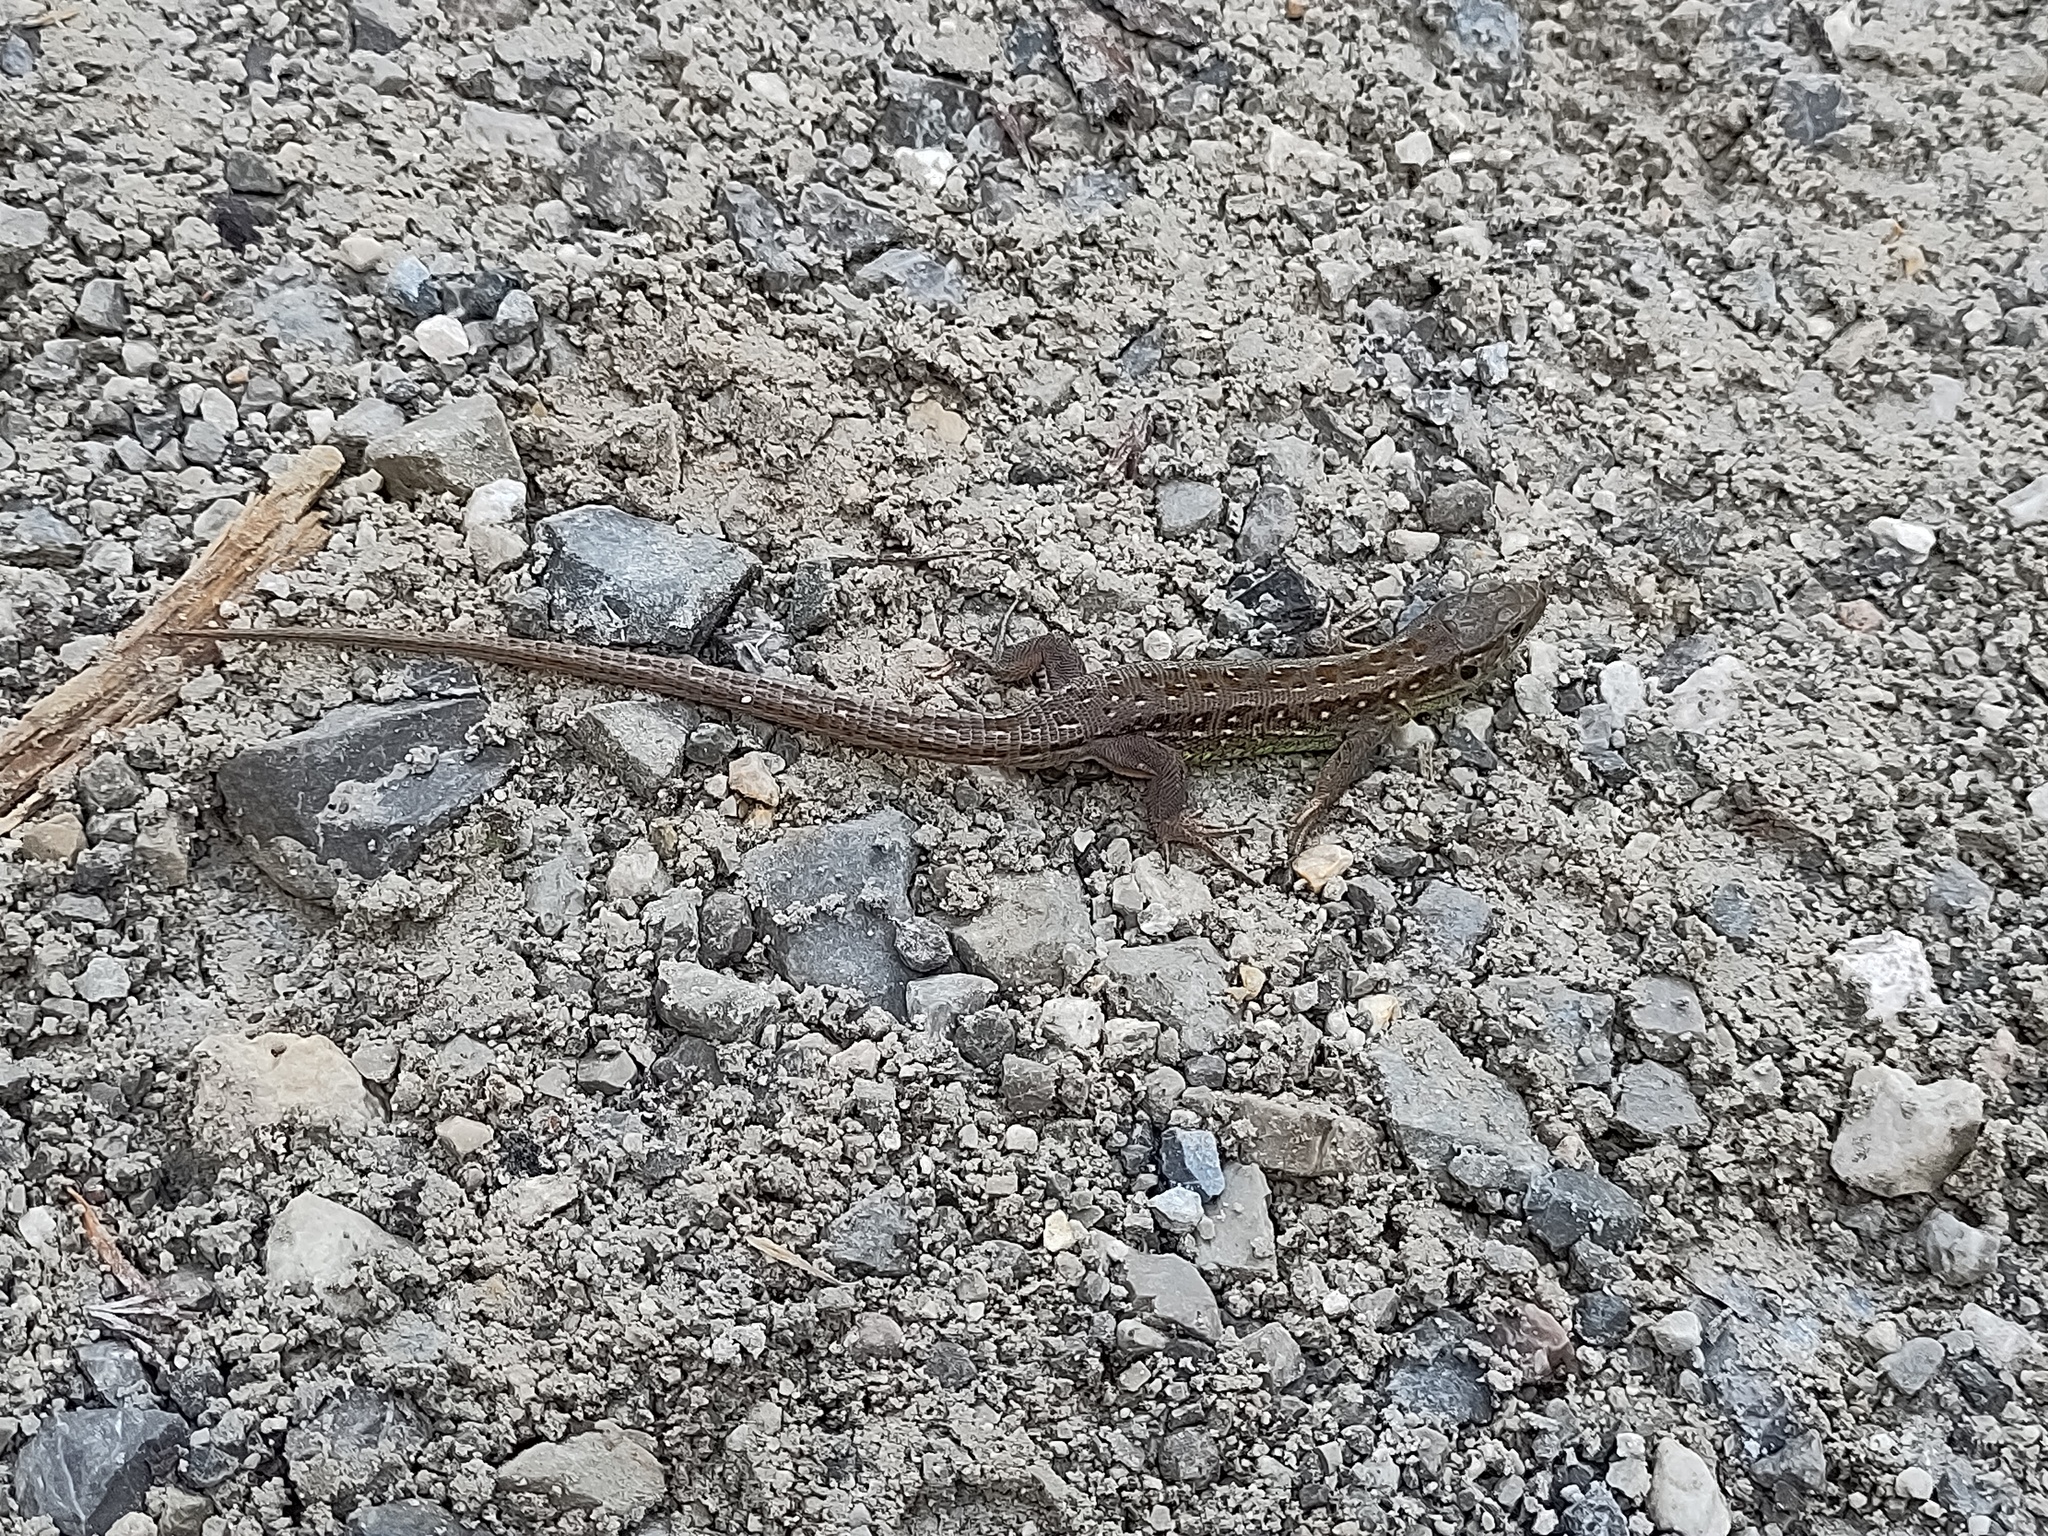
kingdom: Animalia
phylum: Chordata
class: Squamata
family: Lacertidae
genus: Lacerta
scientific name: Lacerta agilis
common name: Sand lizard
